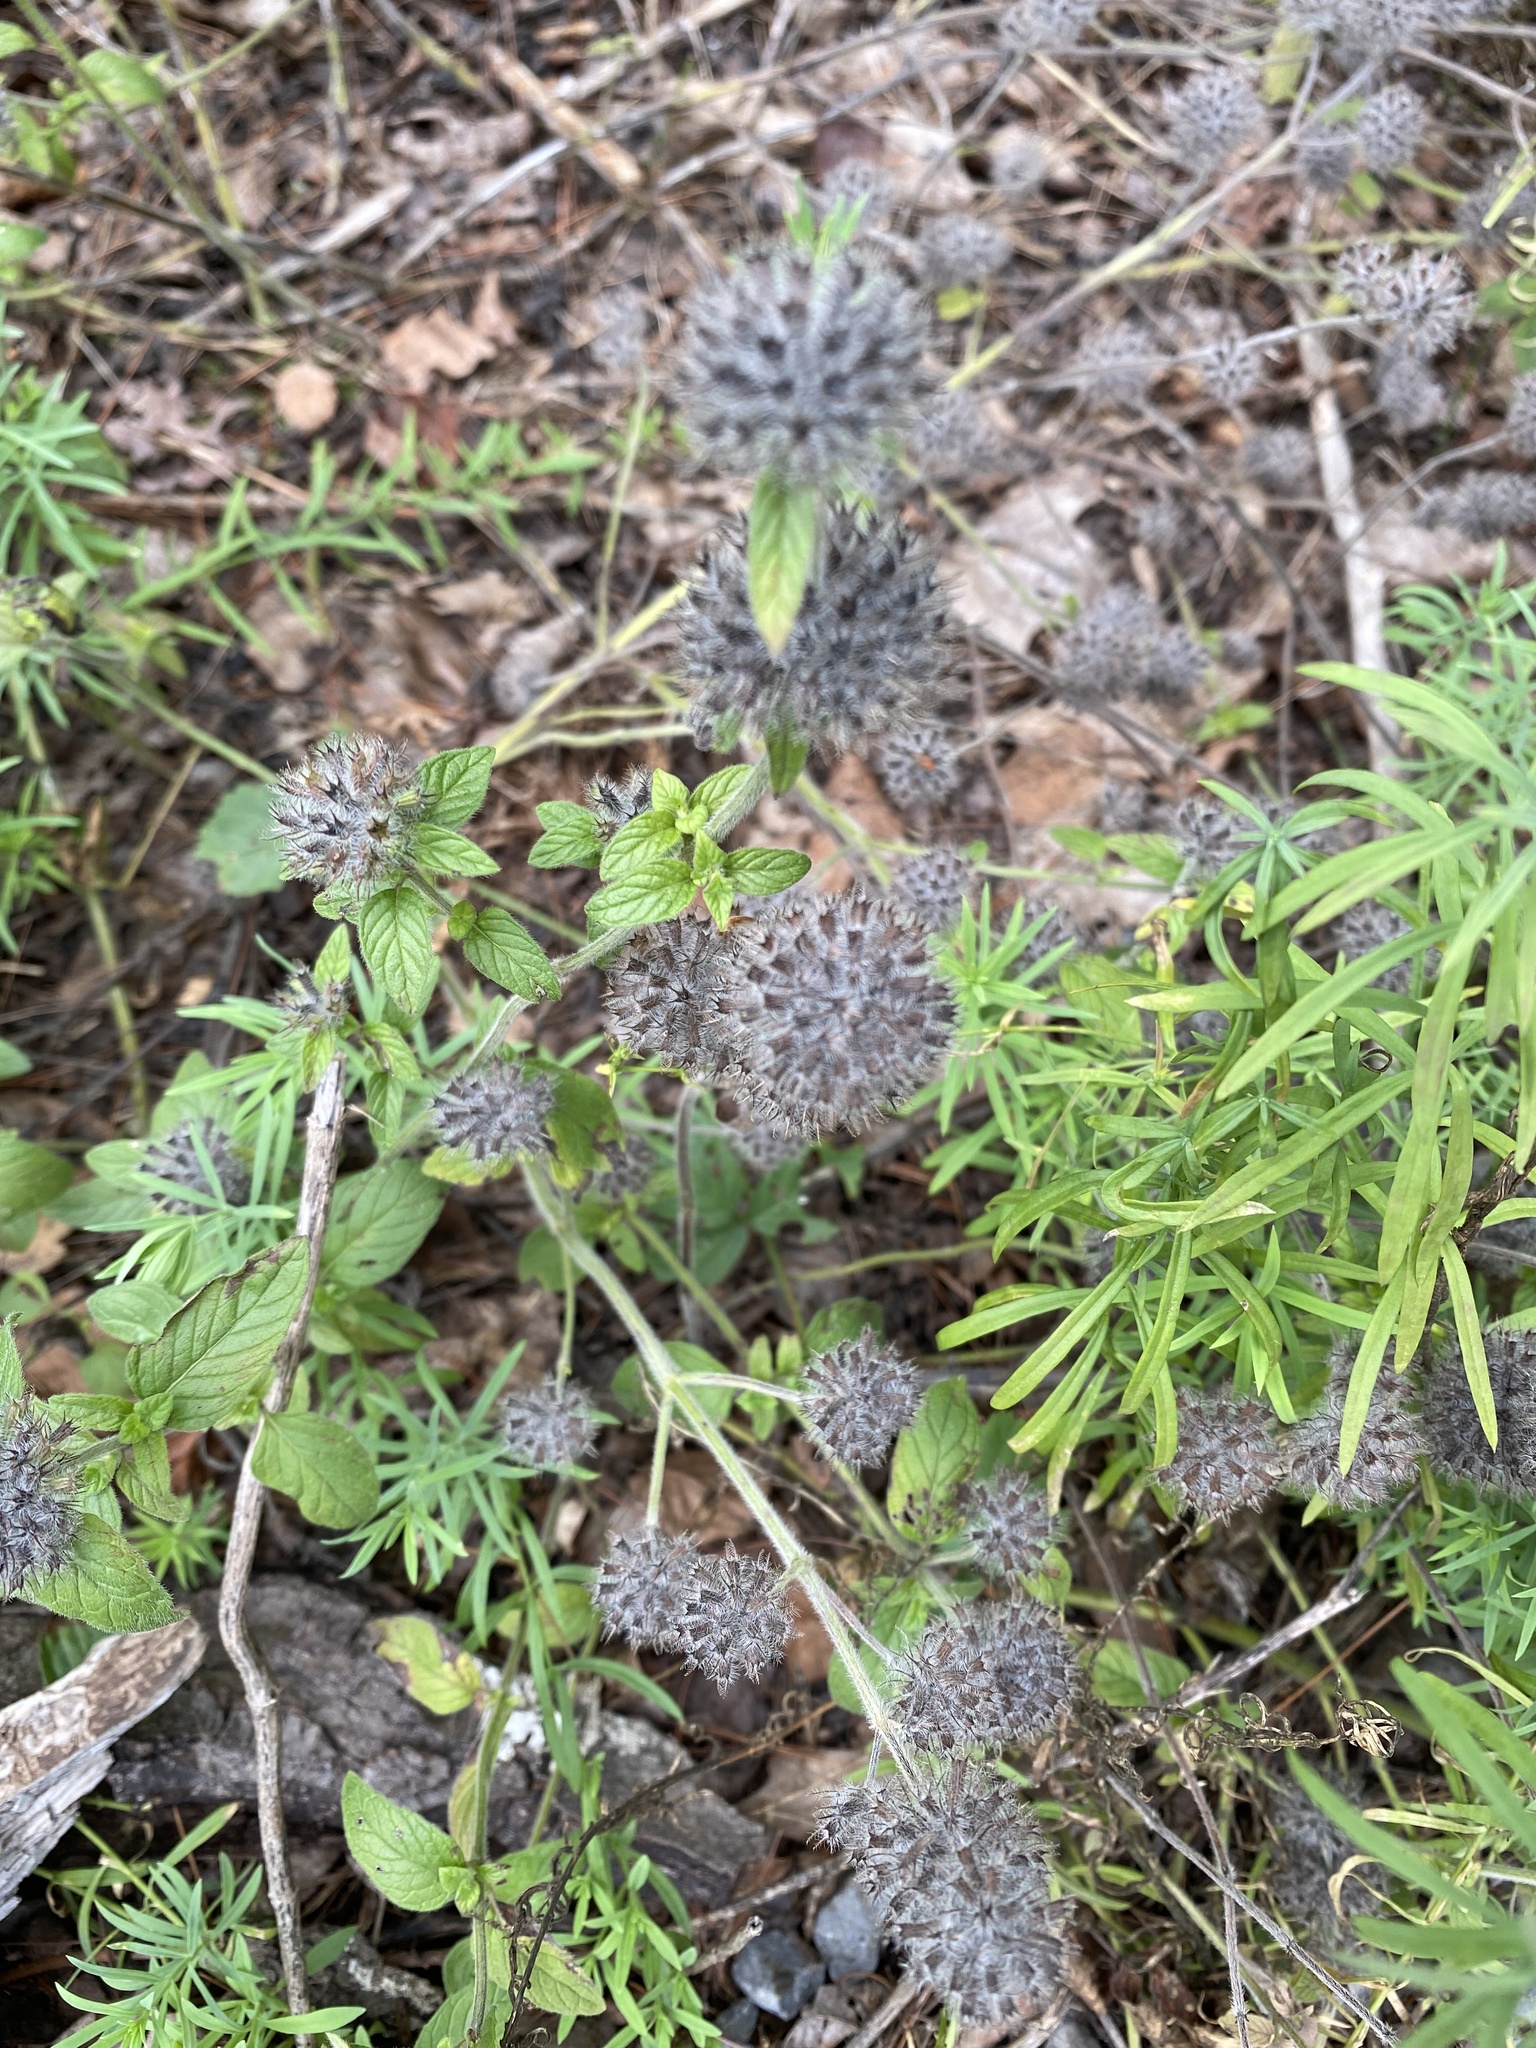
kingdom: Plantae
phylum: Tracheophyta
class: Magnoliopsida
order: Lamiales
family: Lamiaceae
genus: Clinopodium
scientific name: Clinopodium vulgare
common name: Wild basil
